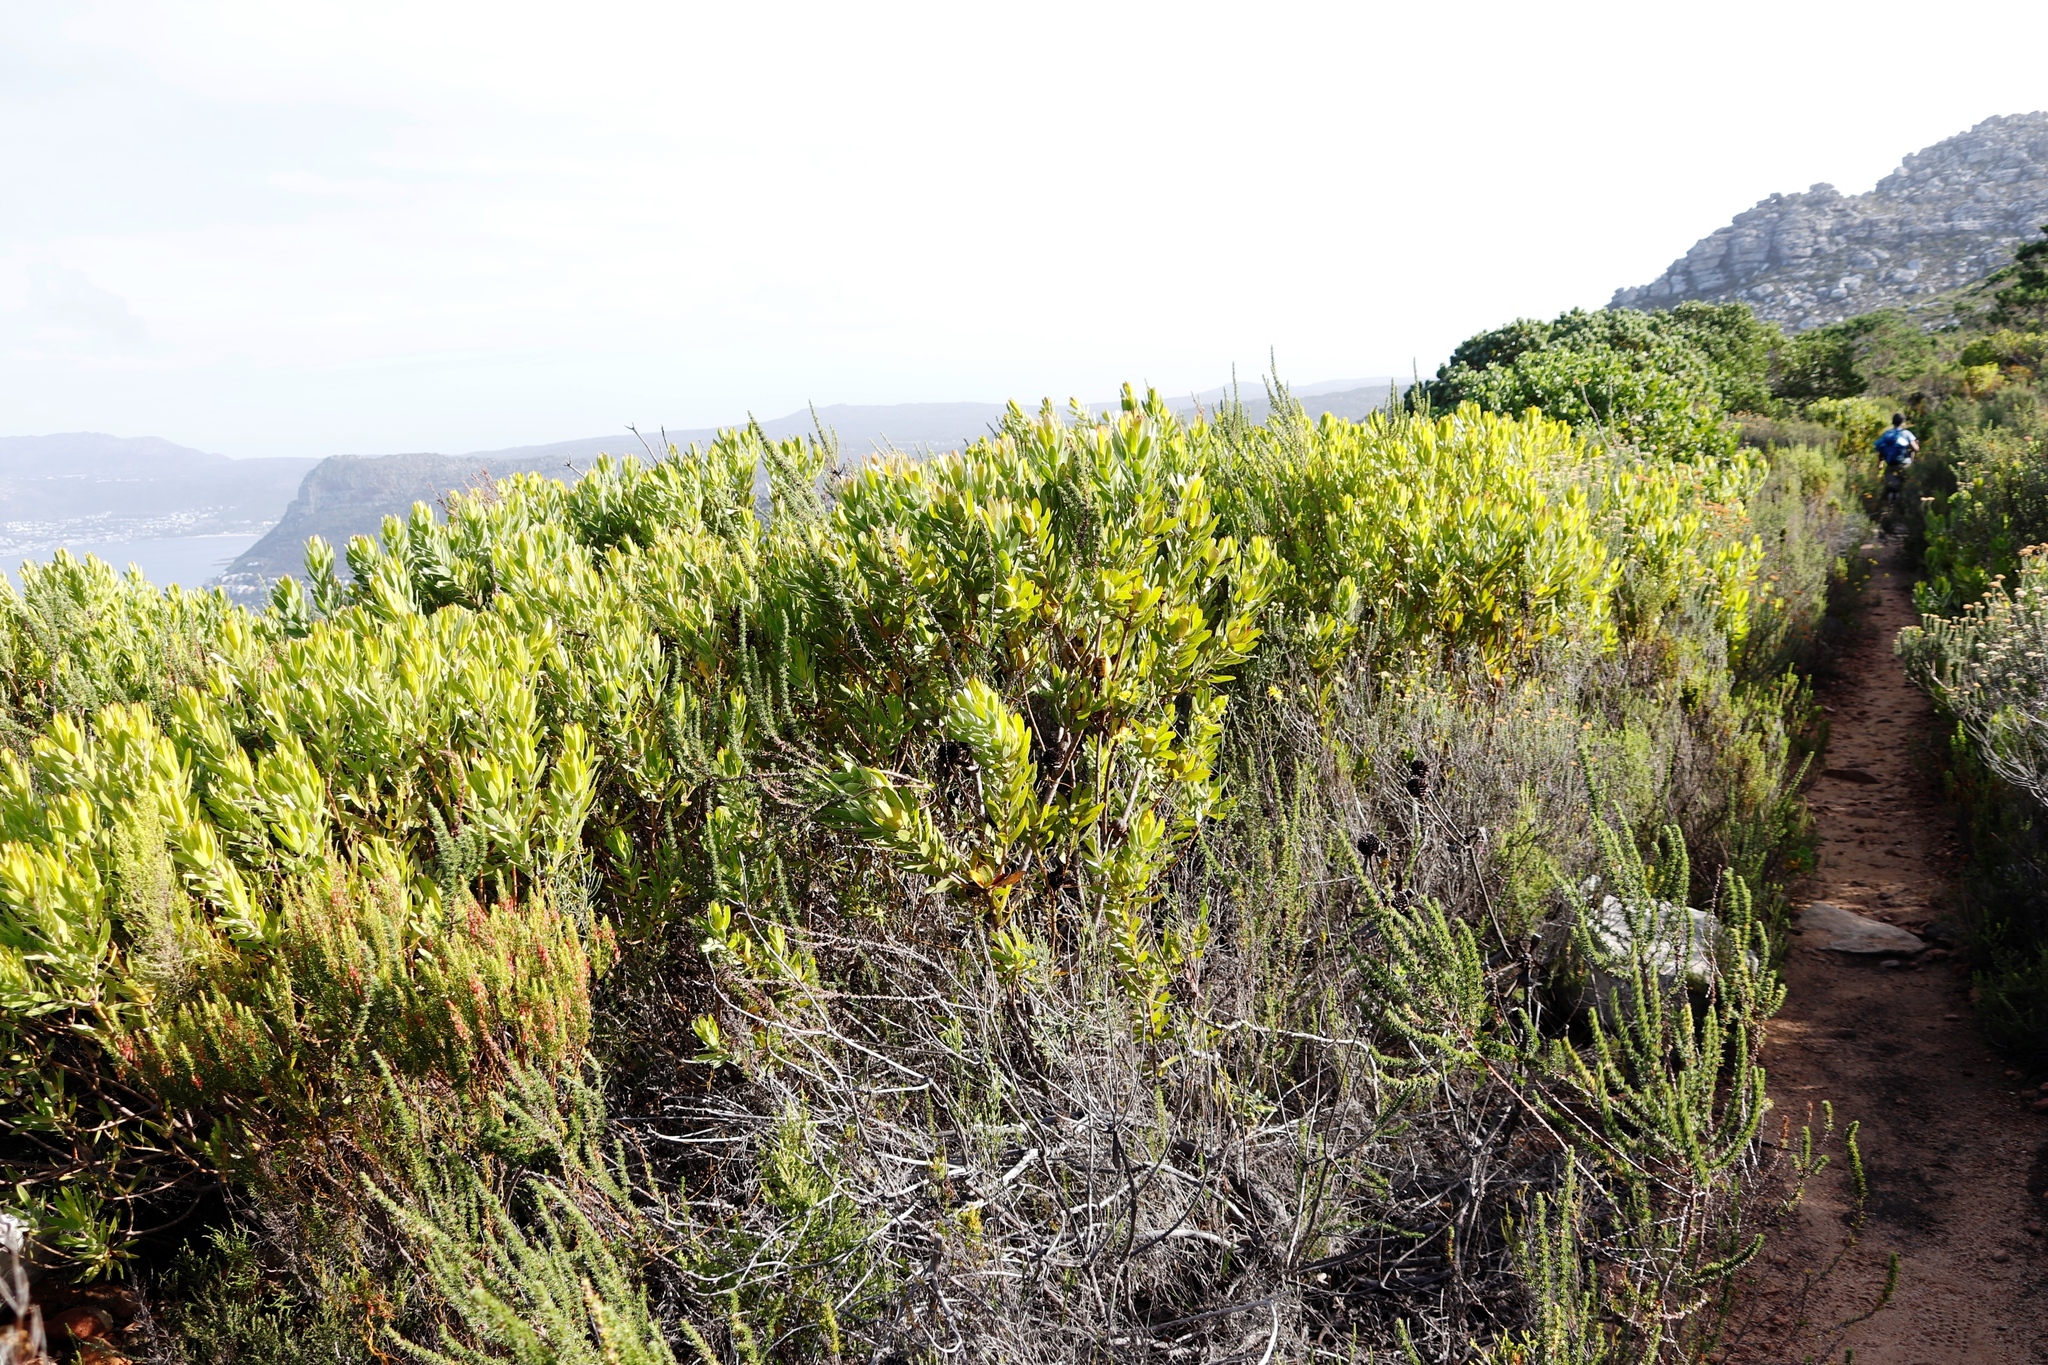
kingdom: Plantae
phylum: Tracheophyta
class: Magnoliopsida
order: Proteales
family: Proteaceae
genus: Leucadendron
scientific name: Leucadendron laureolum
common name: Golden sunshinebush
